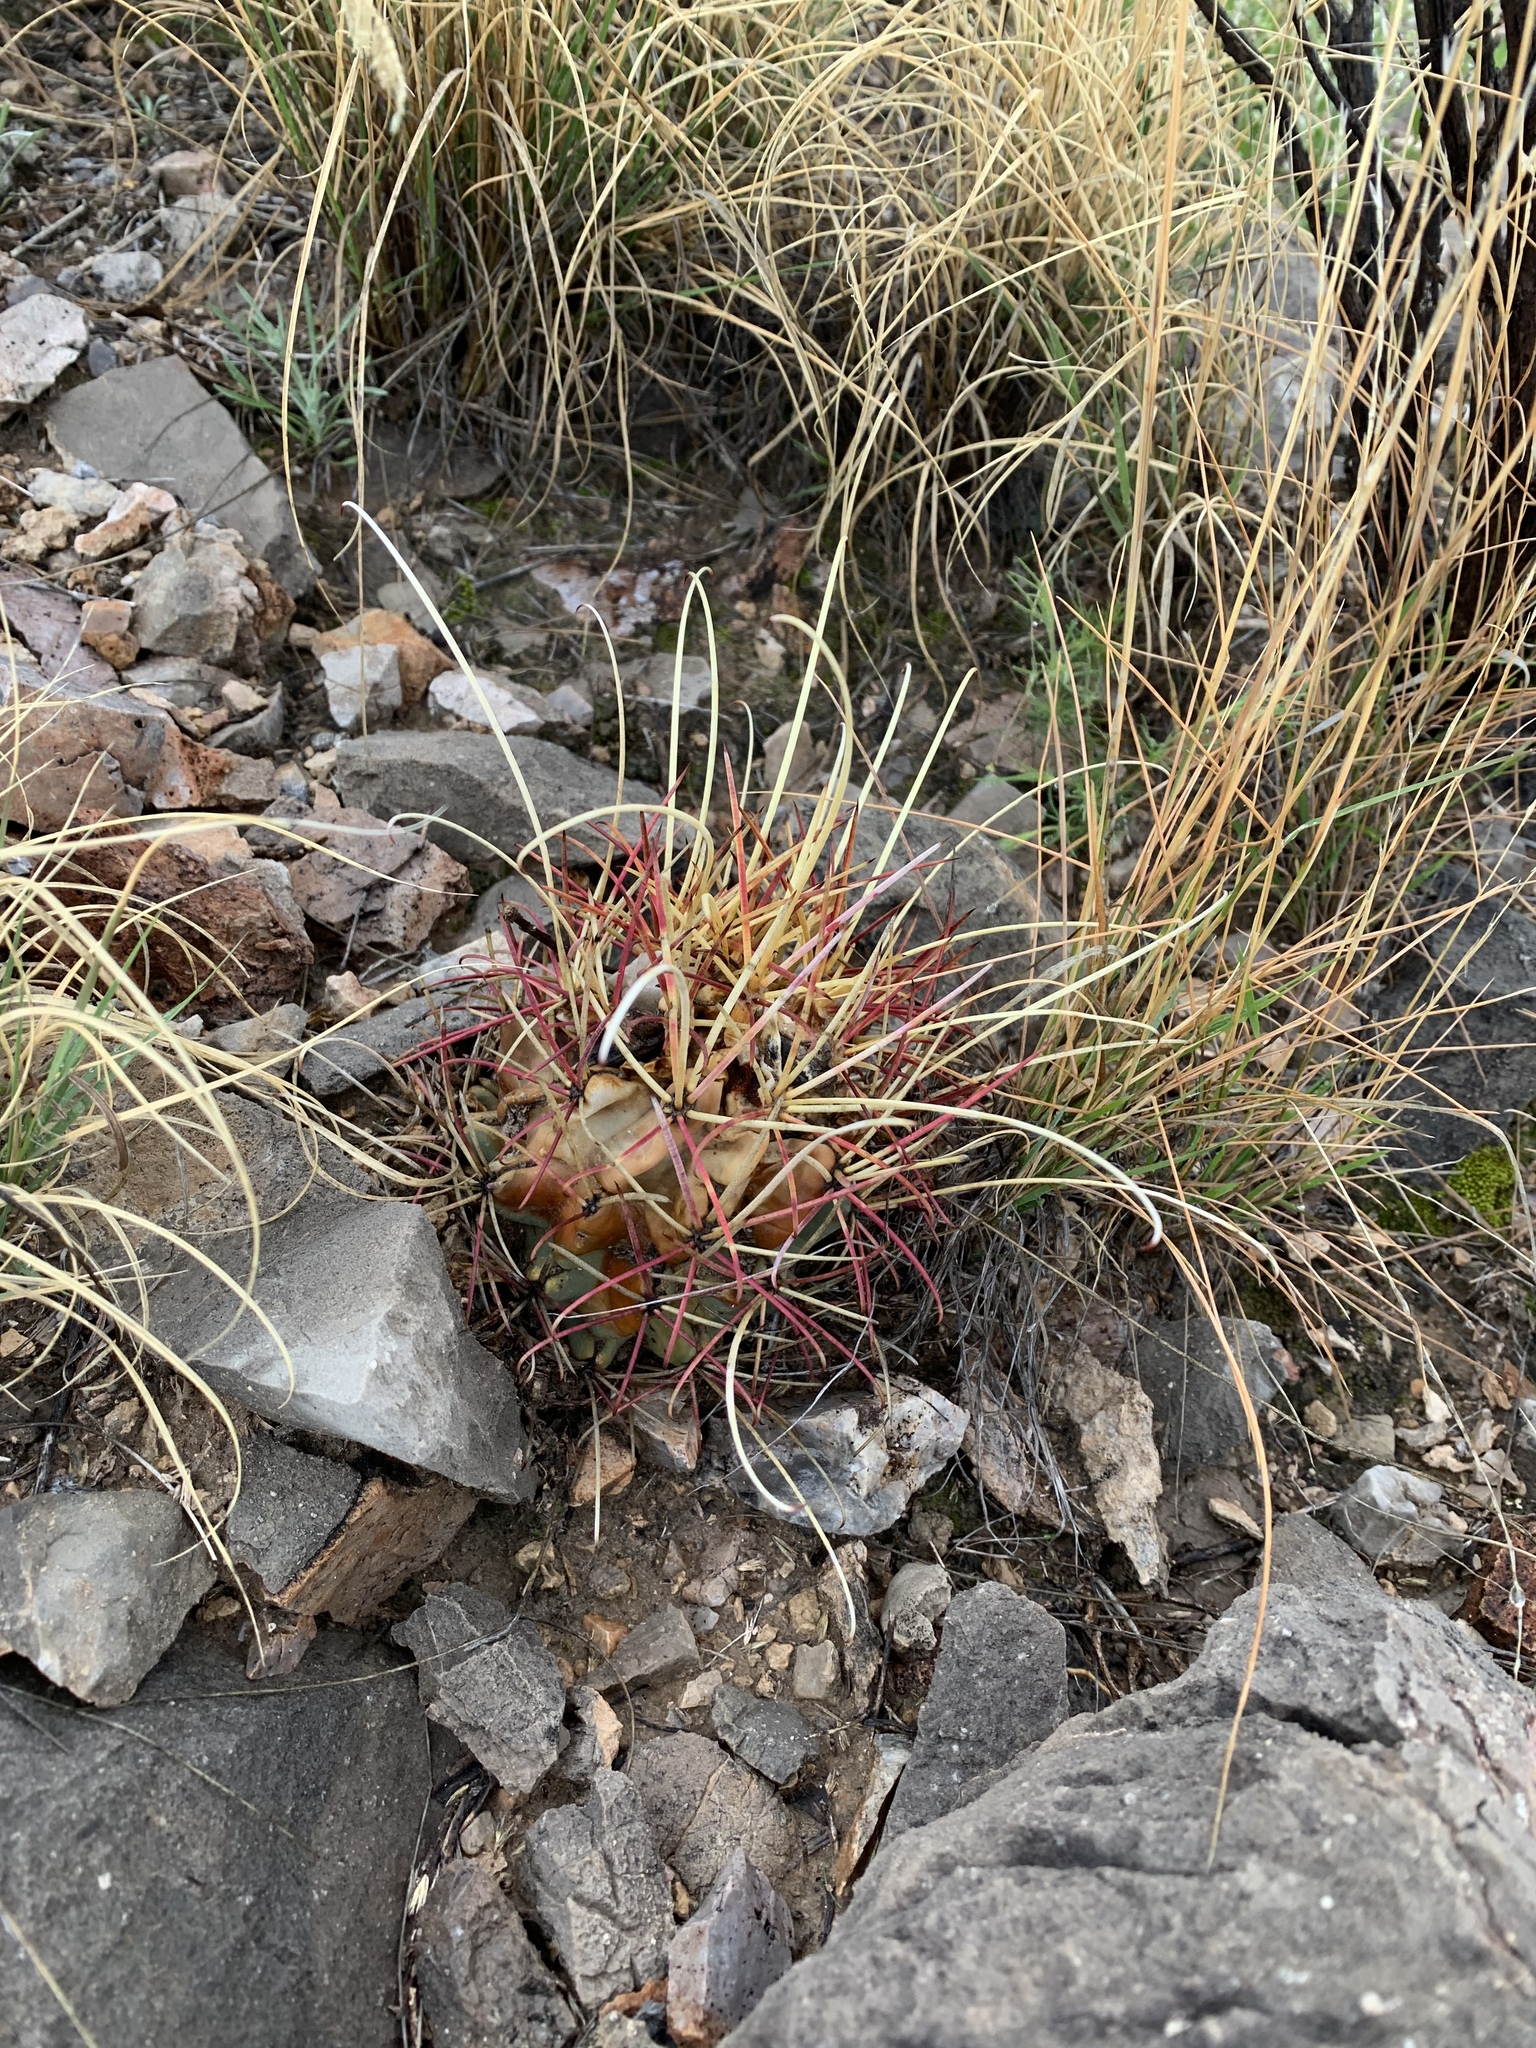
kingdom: Plantae
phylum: Tracheophyta
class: Magnoliopsida
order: Caryophyllales
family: Cactaceae
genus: Ferocactus
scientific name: Ferocactus uncinatus
